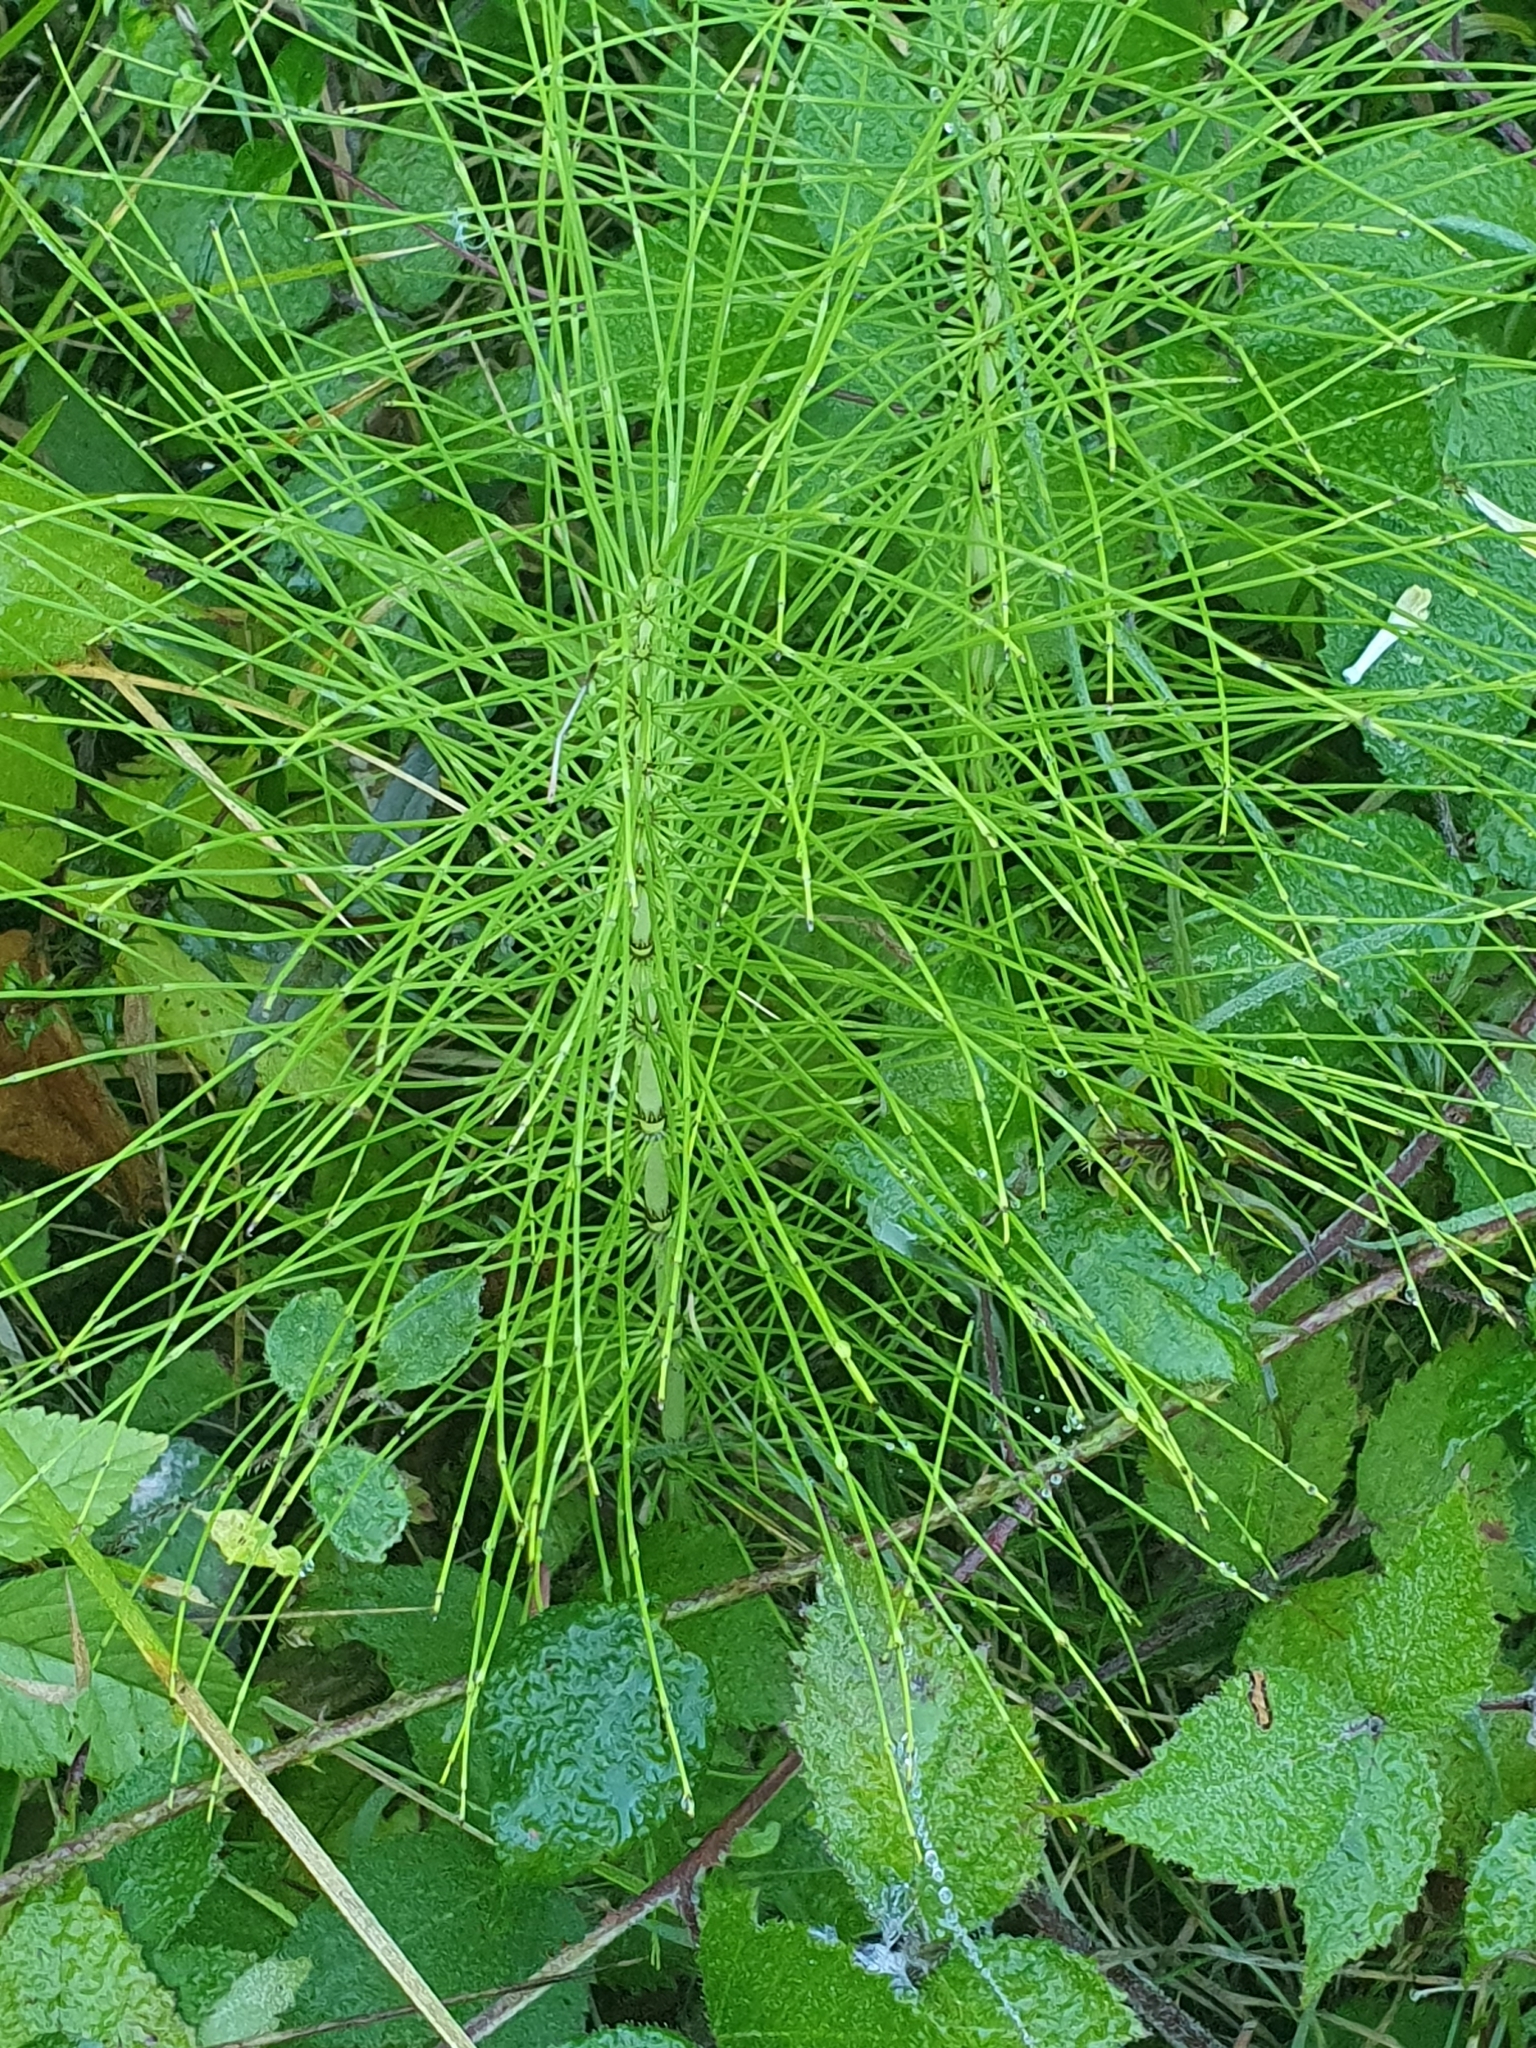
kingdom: Plantae
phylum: Tracheophyta
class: Polypodiopsida
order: Equisetales
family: Equisetaceae
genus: Equisetum
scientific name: Equisetum telmateia
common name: Great horsetail
